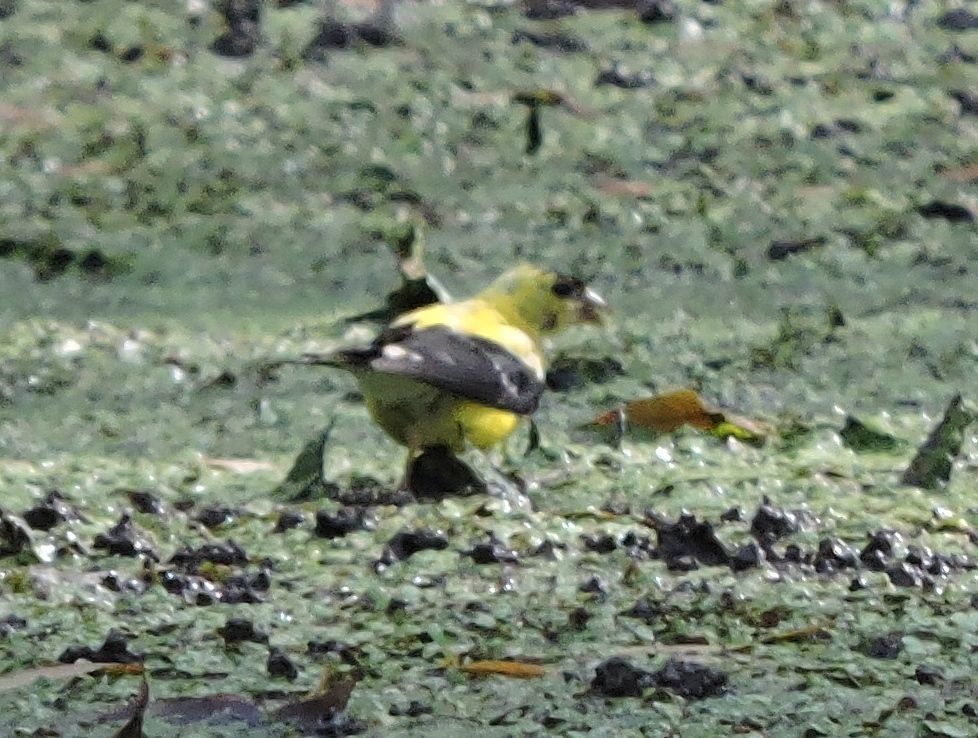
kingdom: Animalia
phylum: Chordata
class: Aves
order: Passeriformes
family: Fringillidae
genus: Spinus
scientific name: Spinus tristis
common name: American goldfinch
